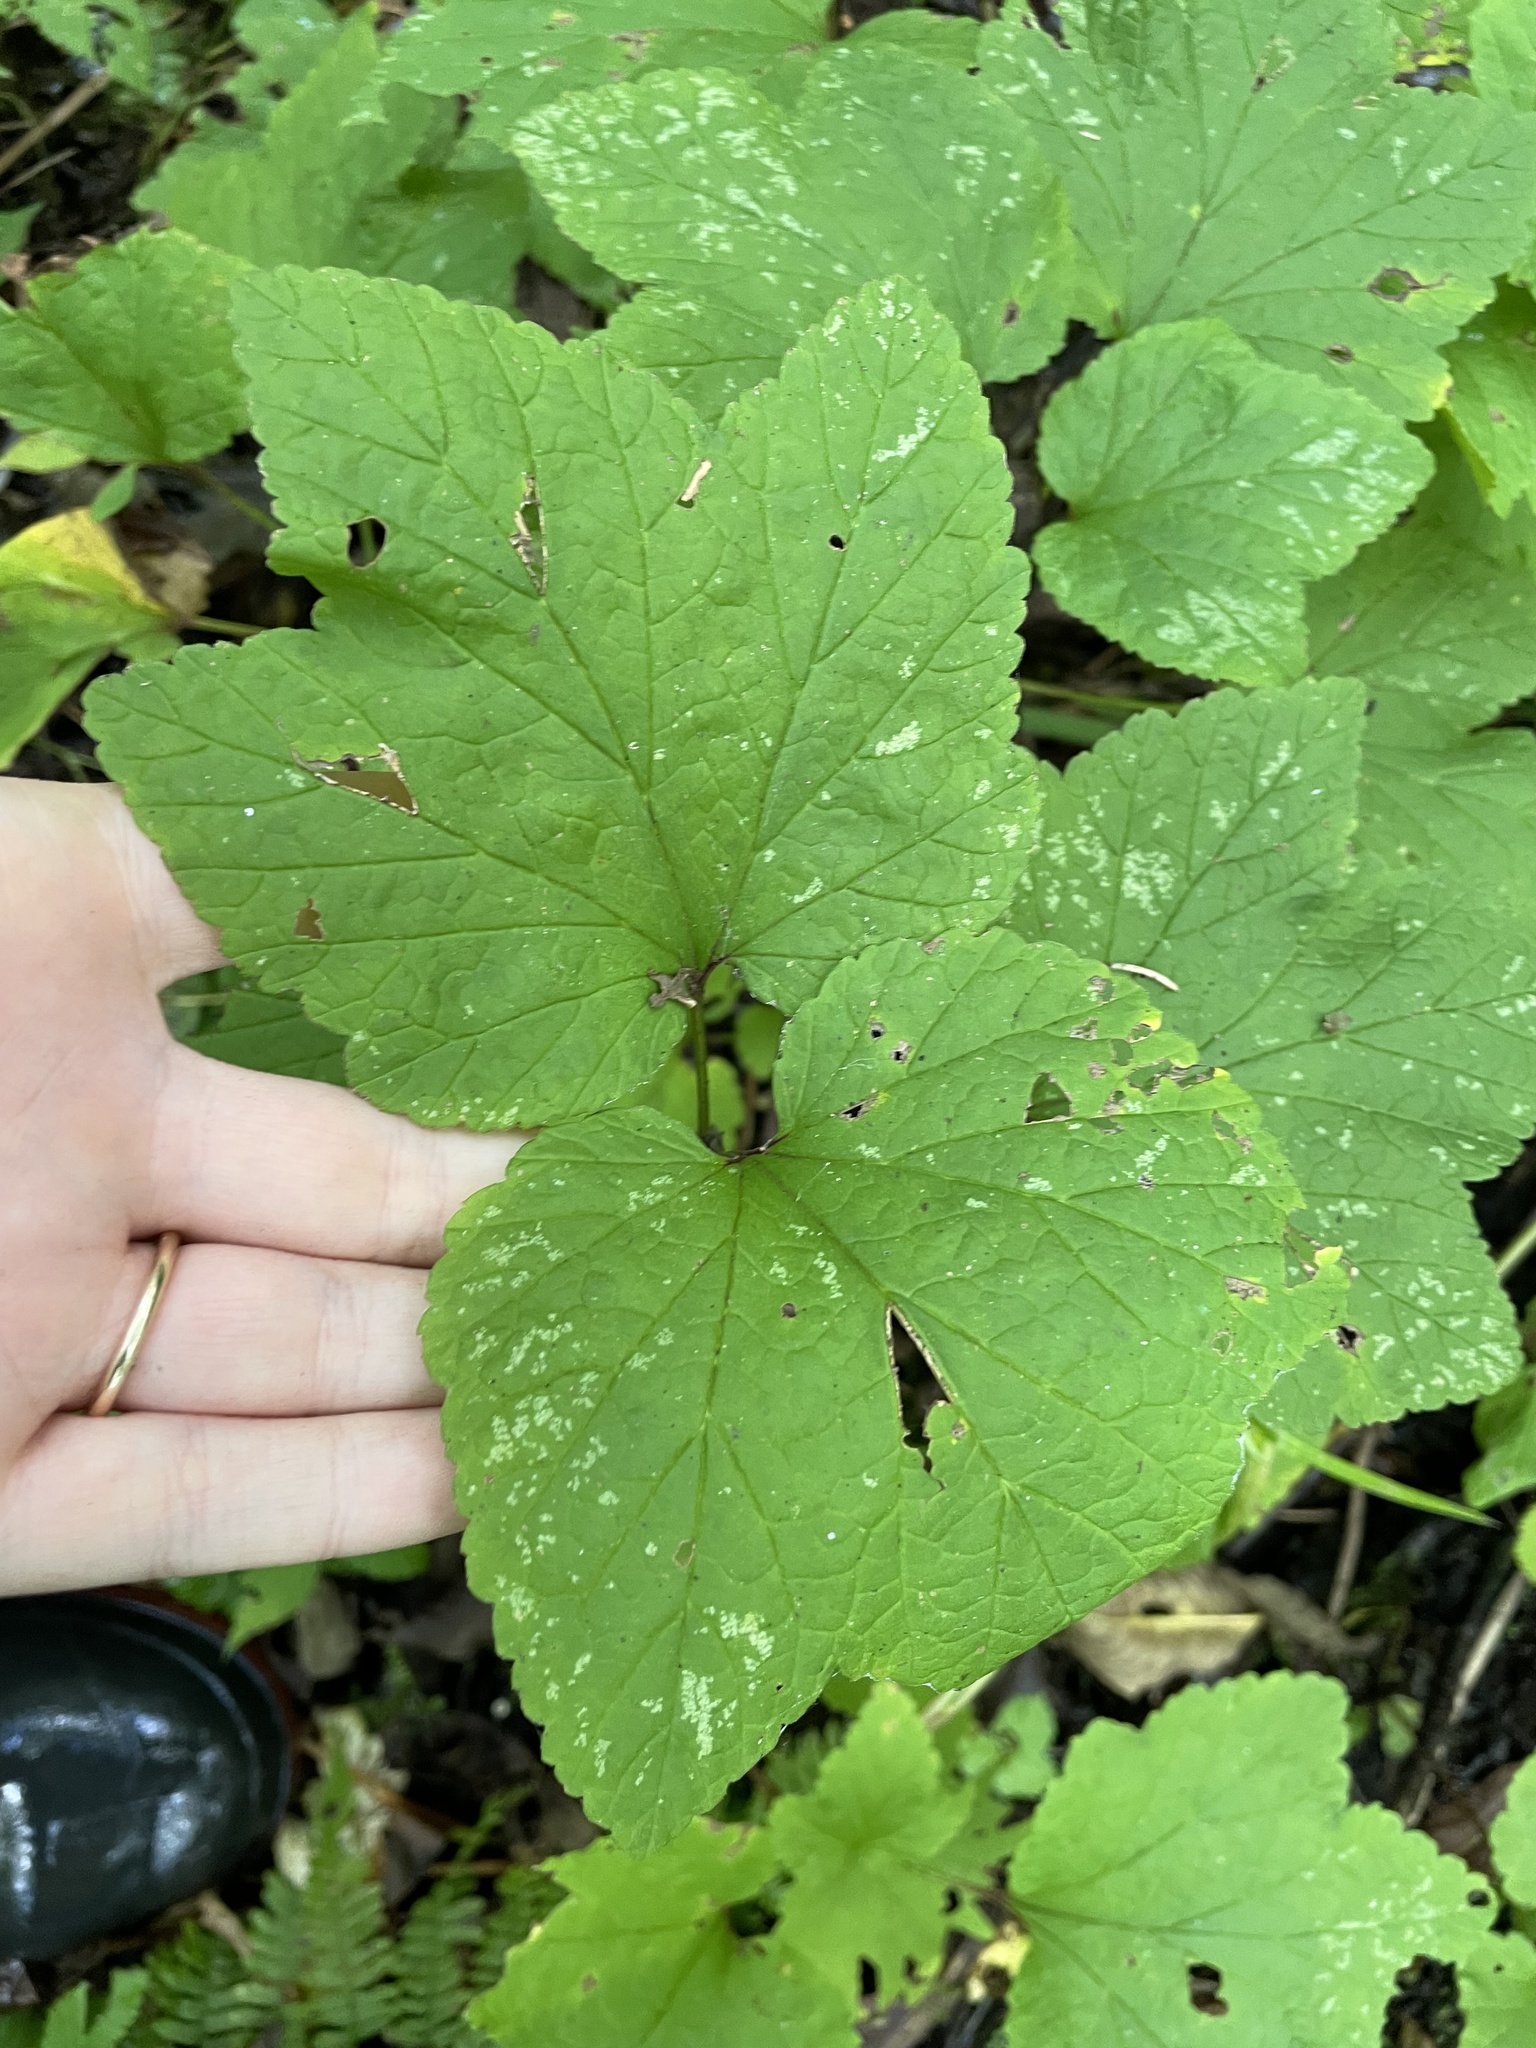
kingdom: Plantae
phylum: Tracheophyta
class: Magnoliopsida
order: Saxifragales
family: Grossulariaceae
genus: Ribes
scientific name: Ribes triste
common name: Swamp red currant
